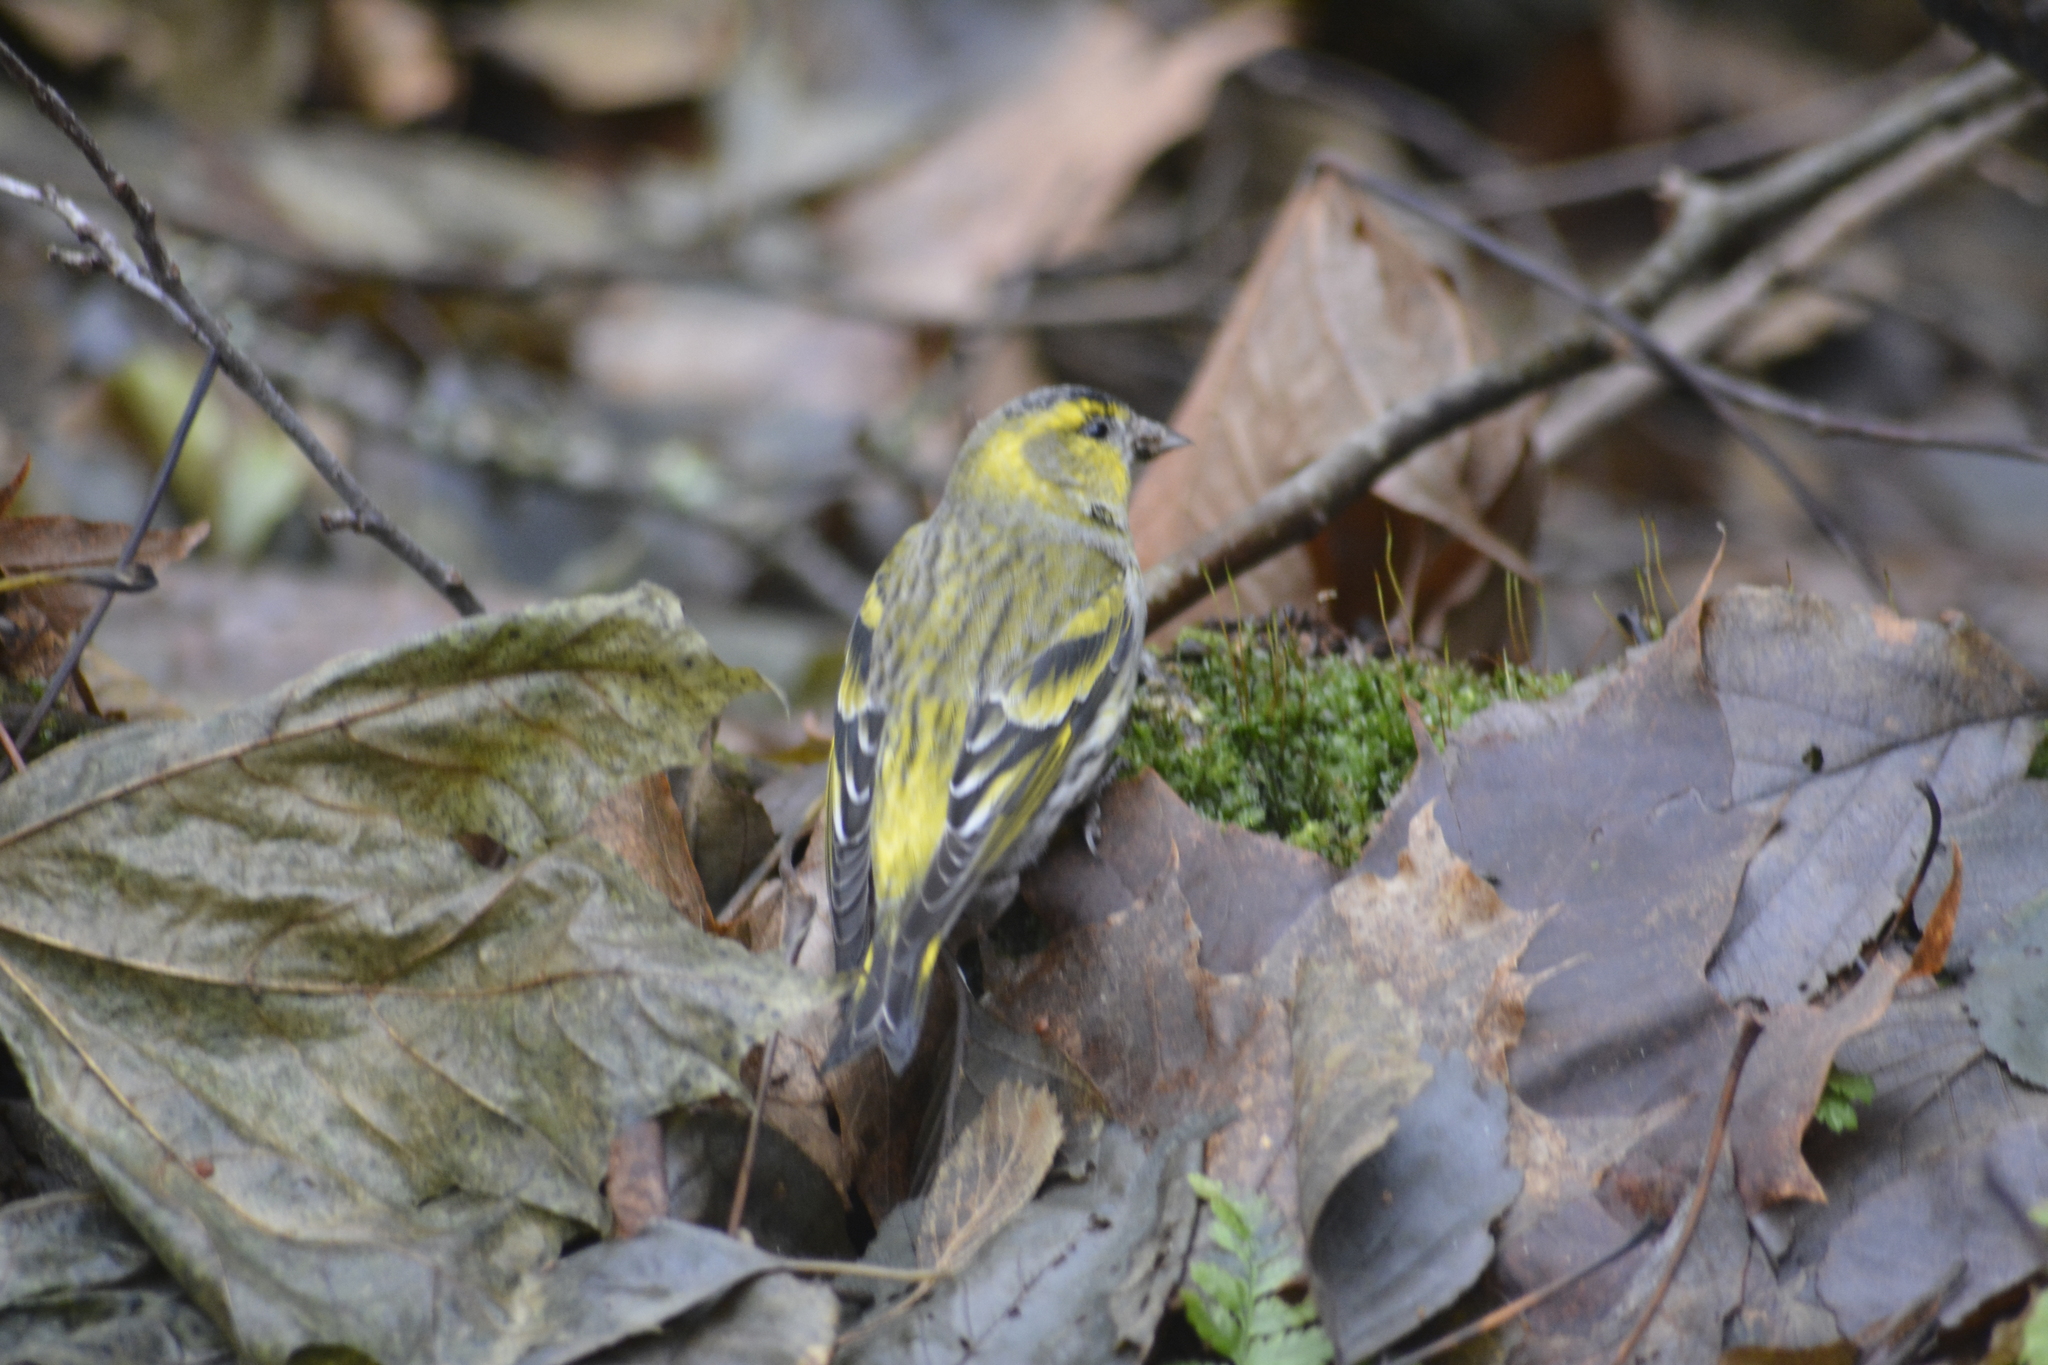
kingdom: Animalia
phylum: Chordata
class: Aves
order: Passeriformes
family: Fringillidae
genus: Spinus
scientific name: Spinus spinus
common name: Eurasian siskin
